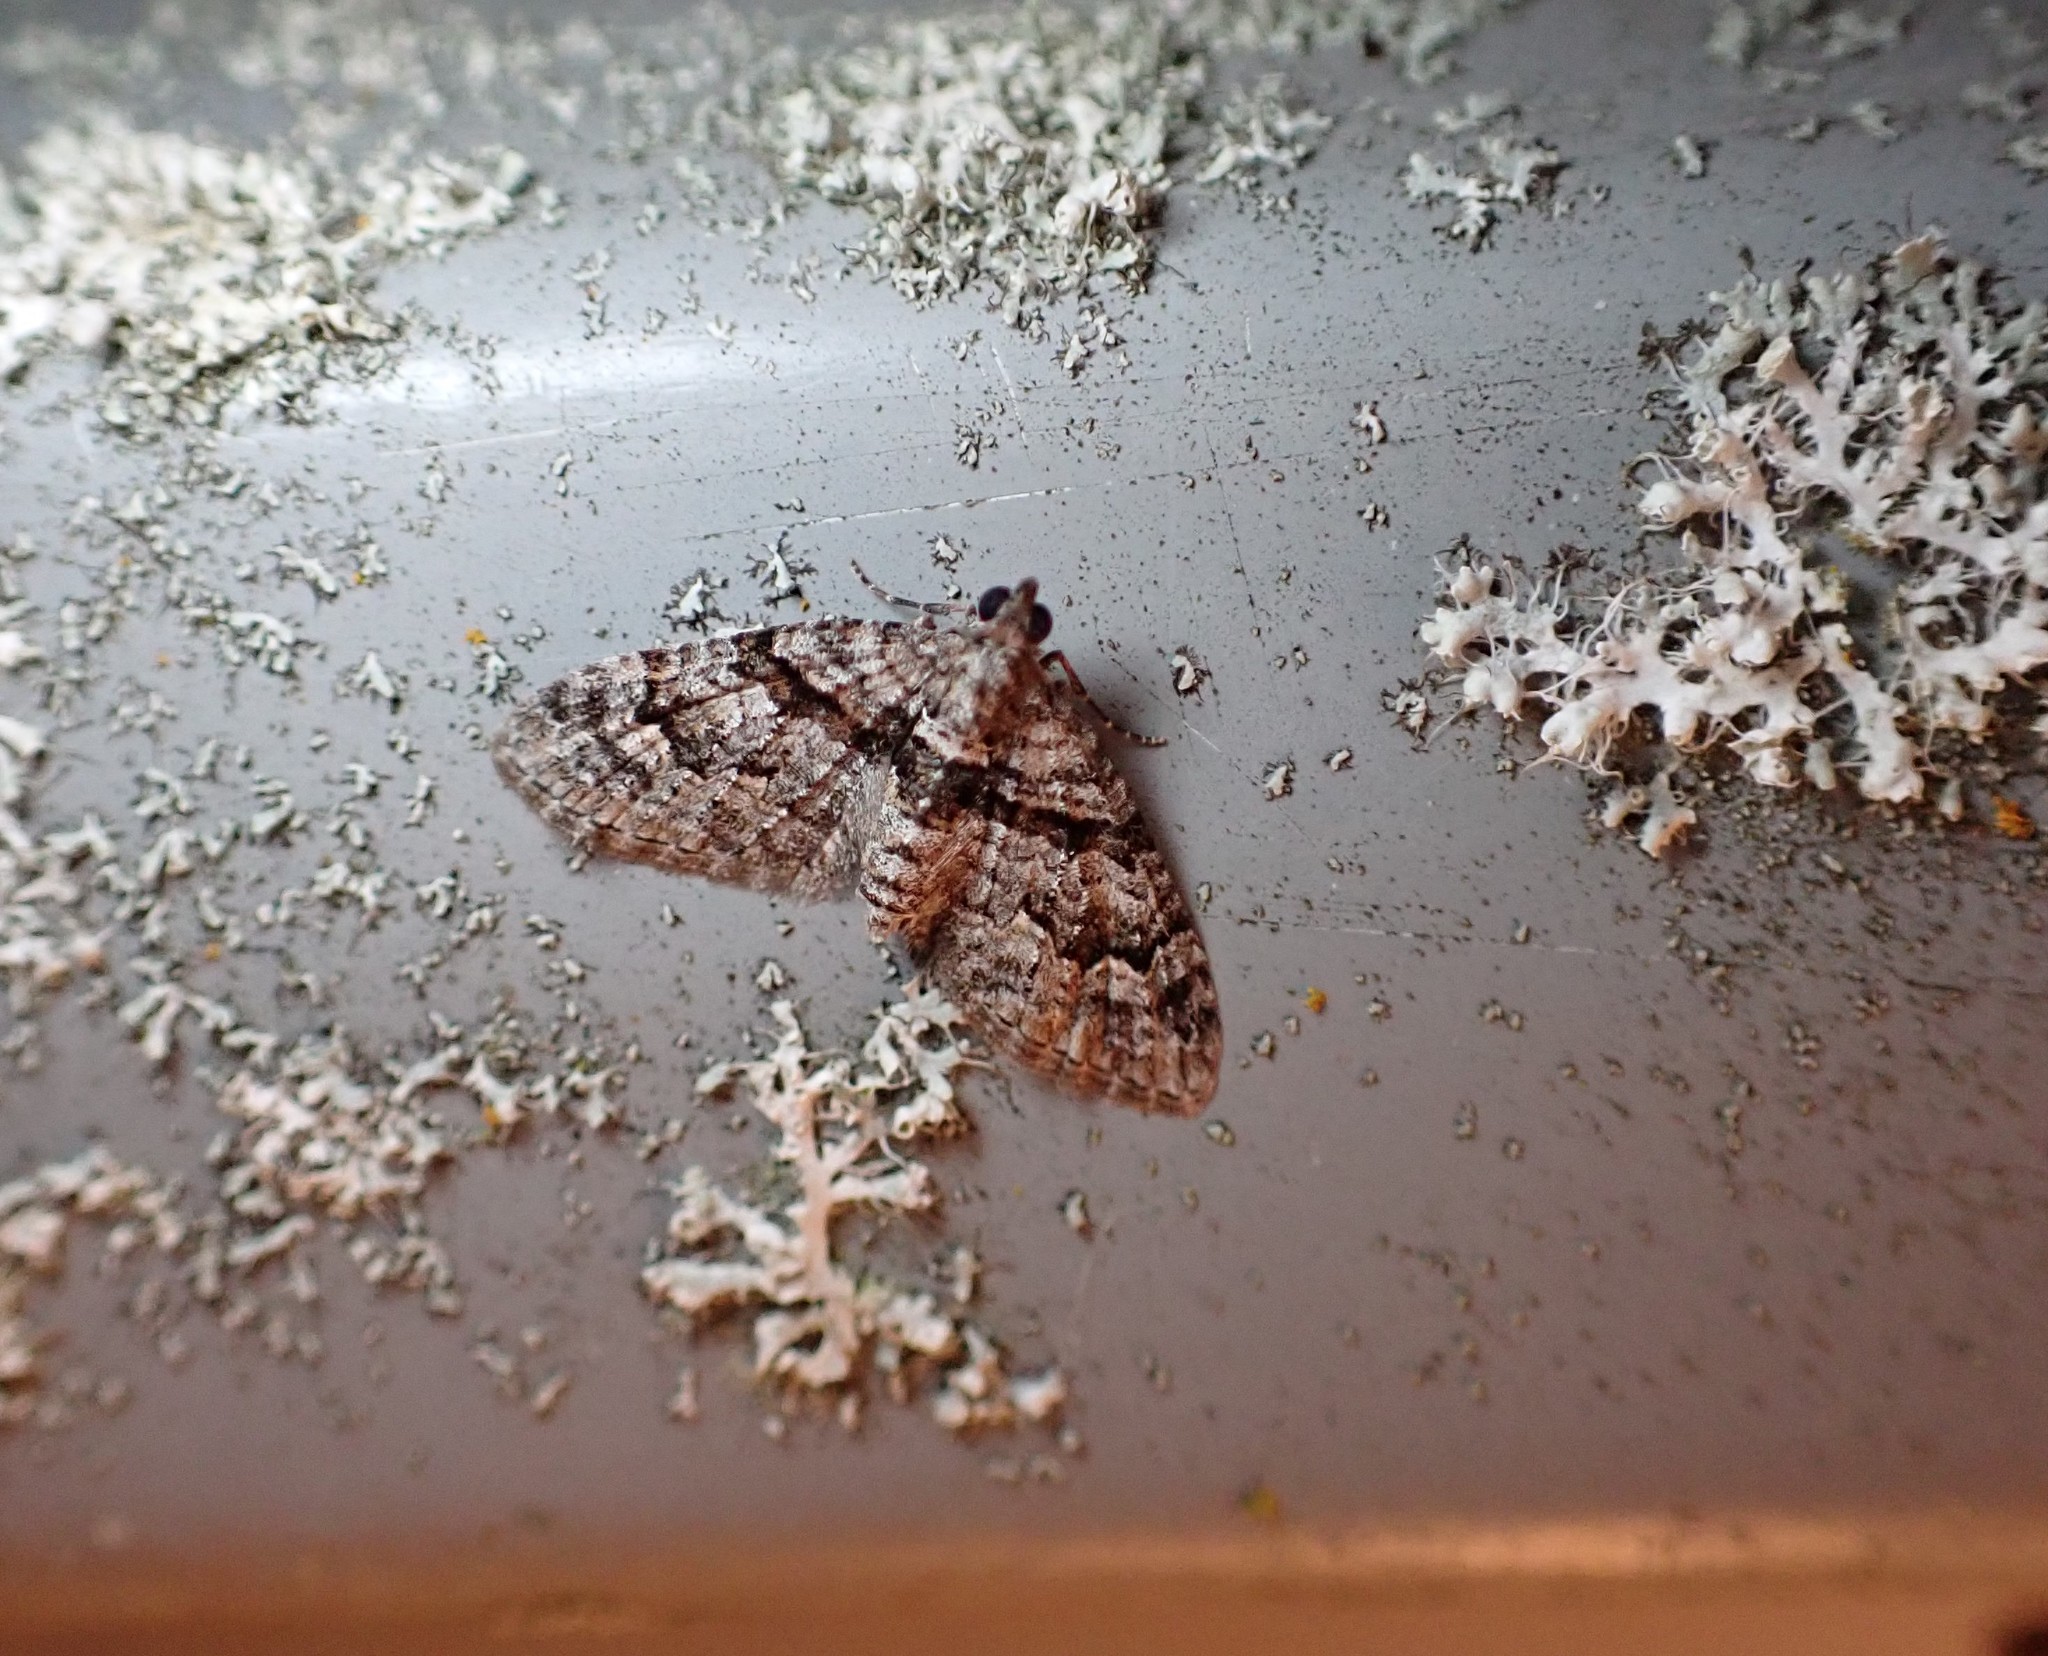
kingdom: Animalia
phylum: Arthropoda
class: Insecta
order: Lepidoptera
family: Geometridae
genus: Phrissogonus
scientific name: Phrissogonus laticostata
